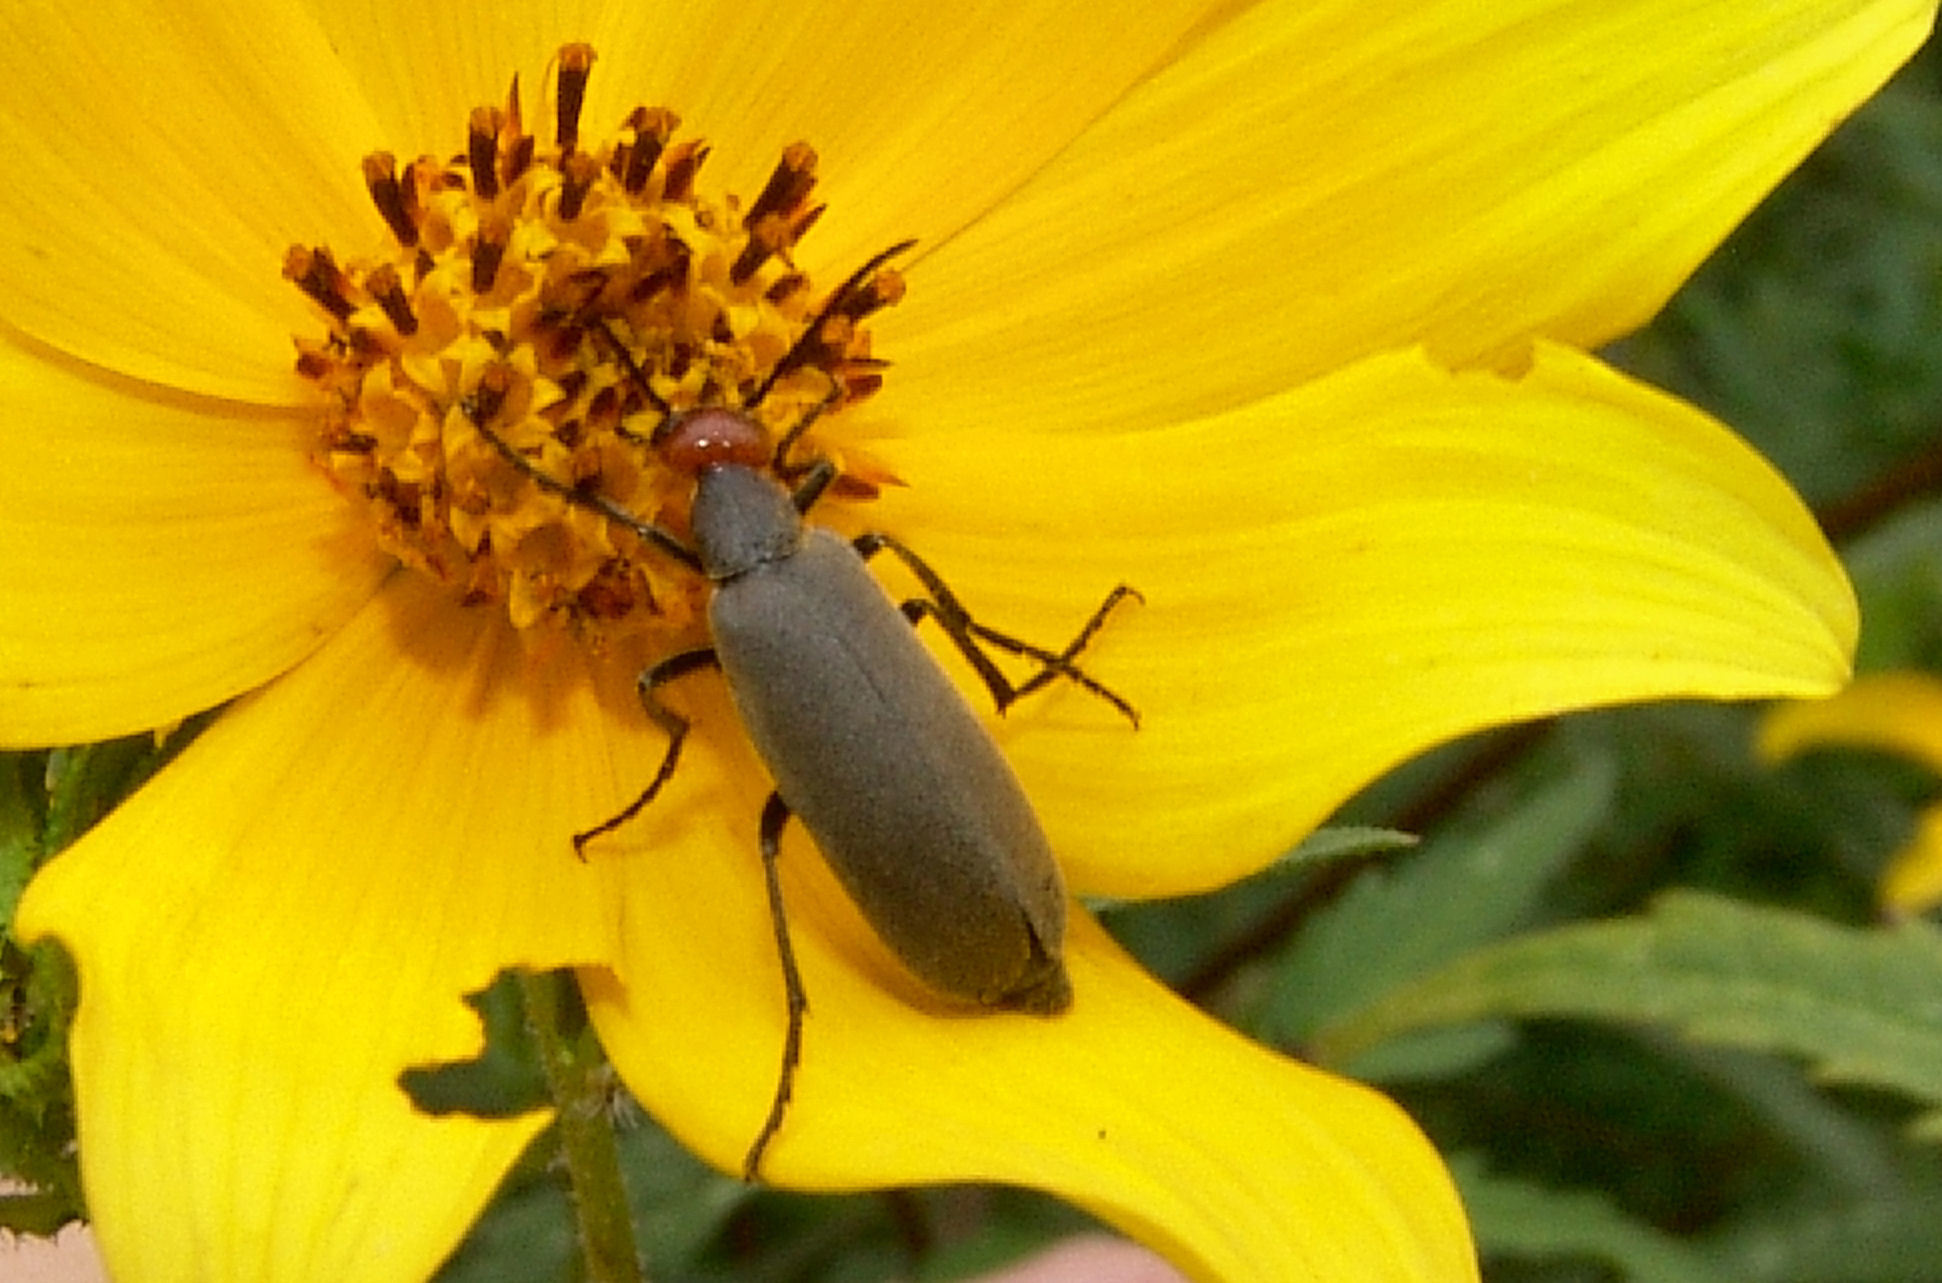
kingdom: Animalia
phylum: Arthropoda
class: Insecta
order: Coleoptera
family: Meloidae
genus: Epicauta
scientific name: Epicauta atrata
